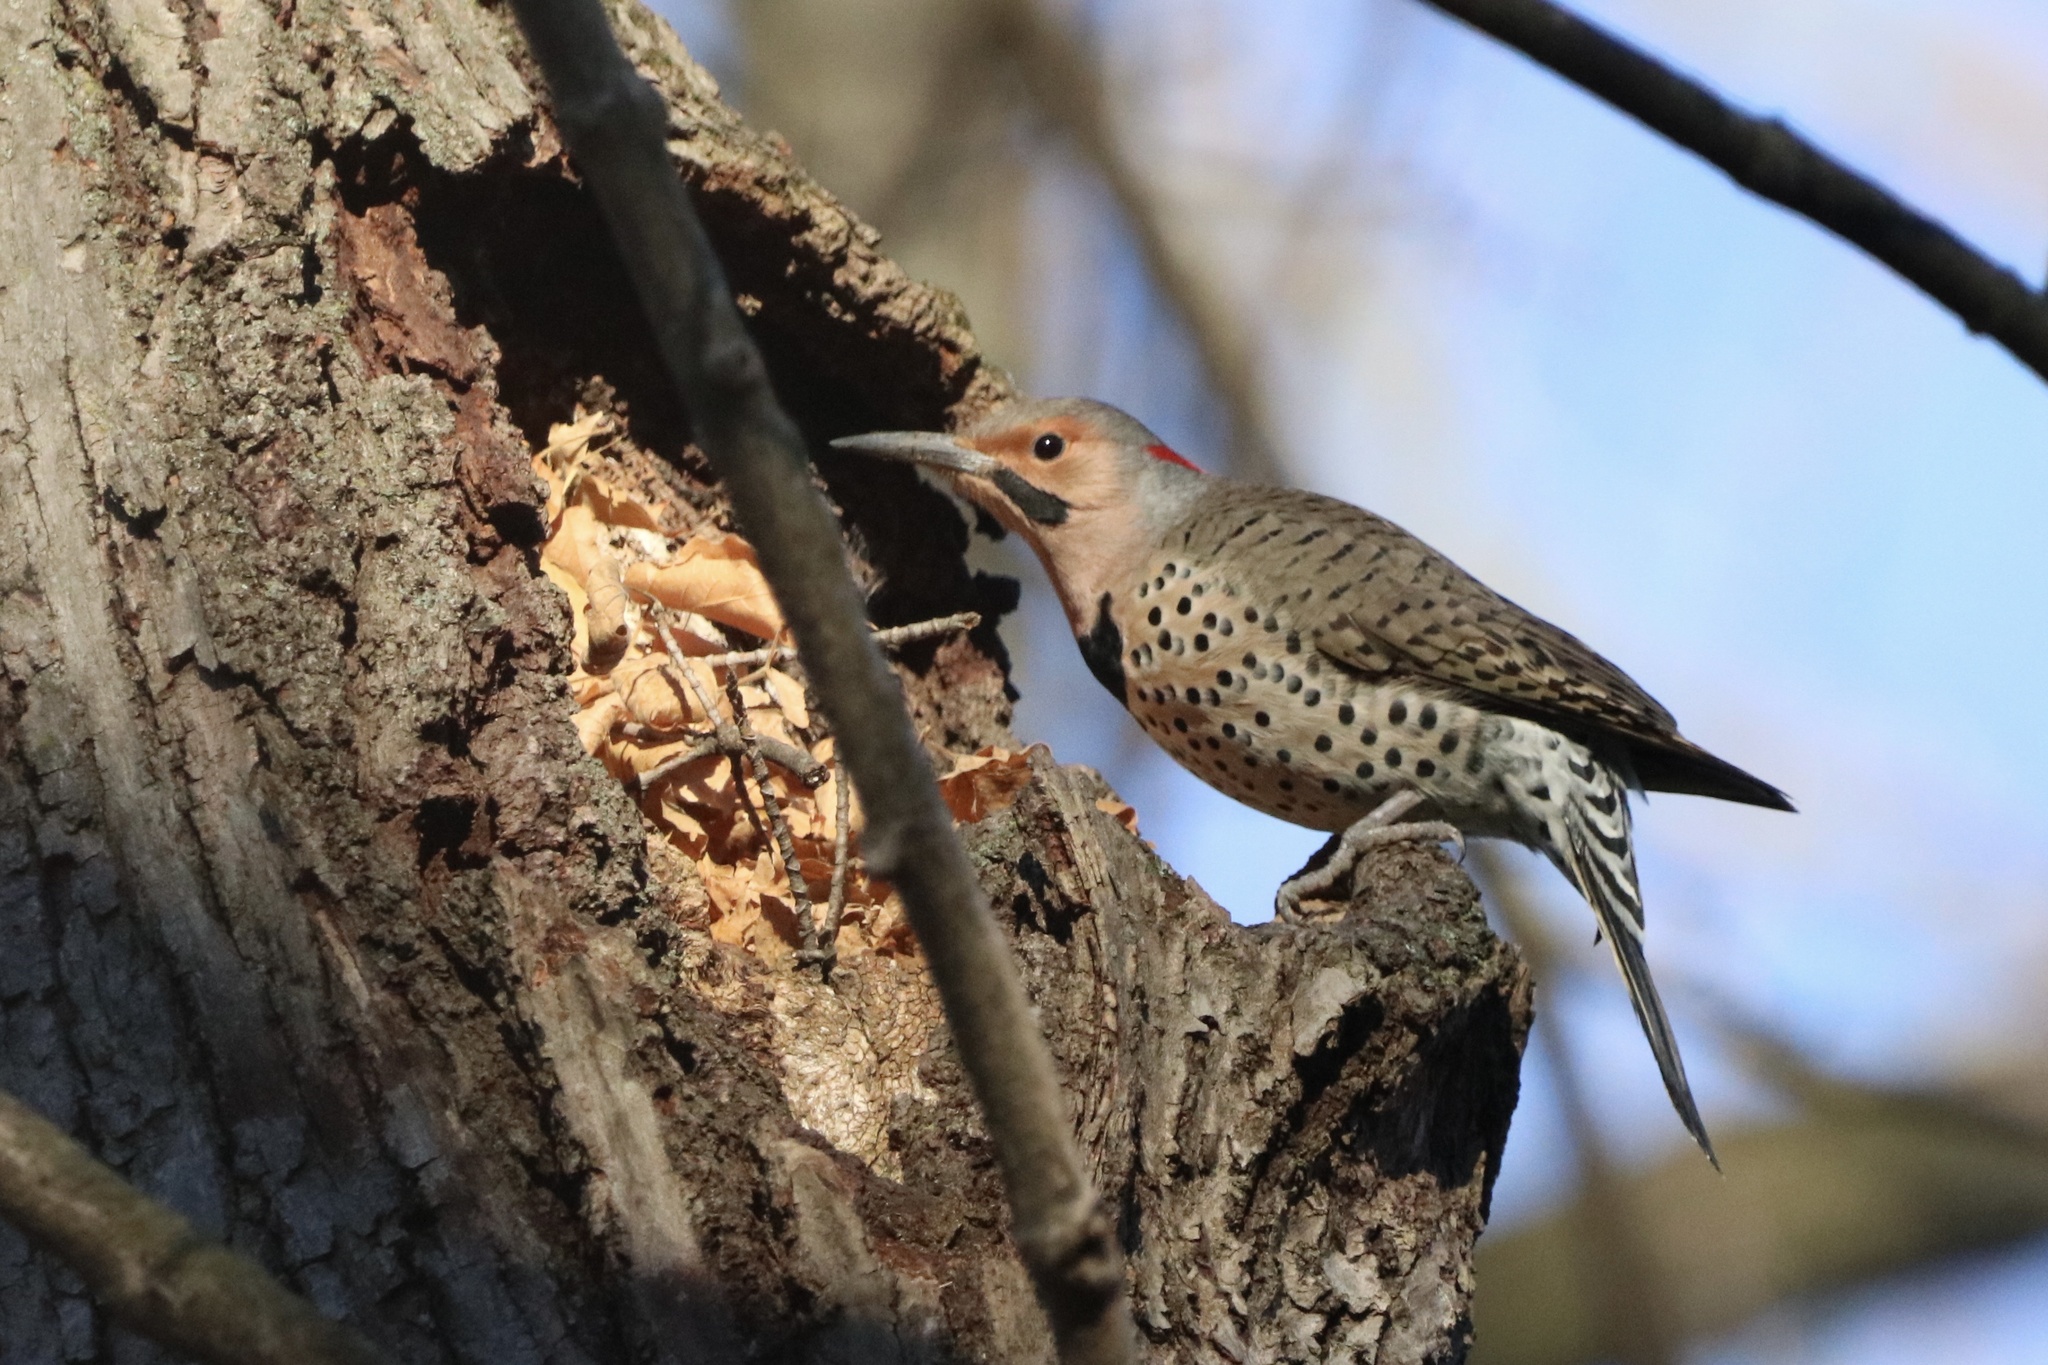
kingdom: Animalia
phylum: Chordata
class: Aves
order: Piciformes
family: Picidae
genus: Colaptes
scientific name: Colaptes auratus
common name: Northern flicker
